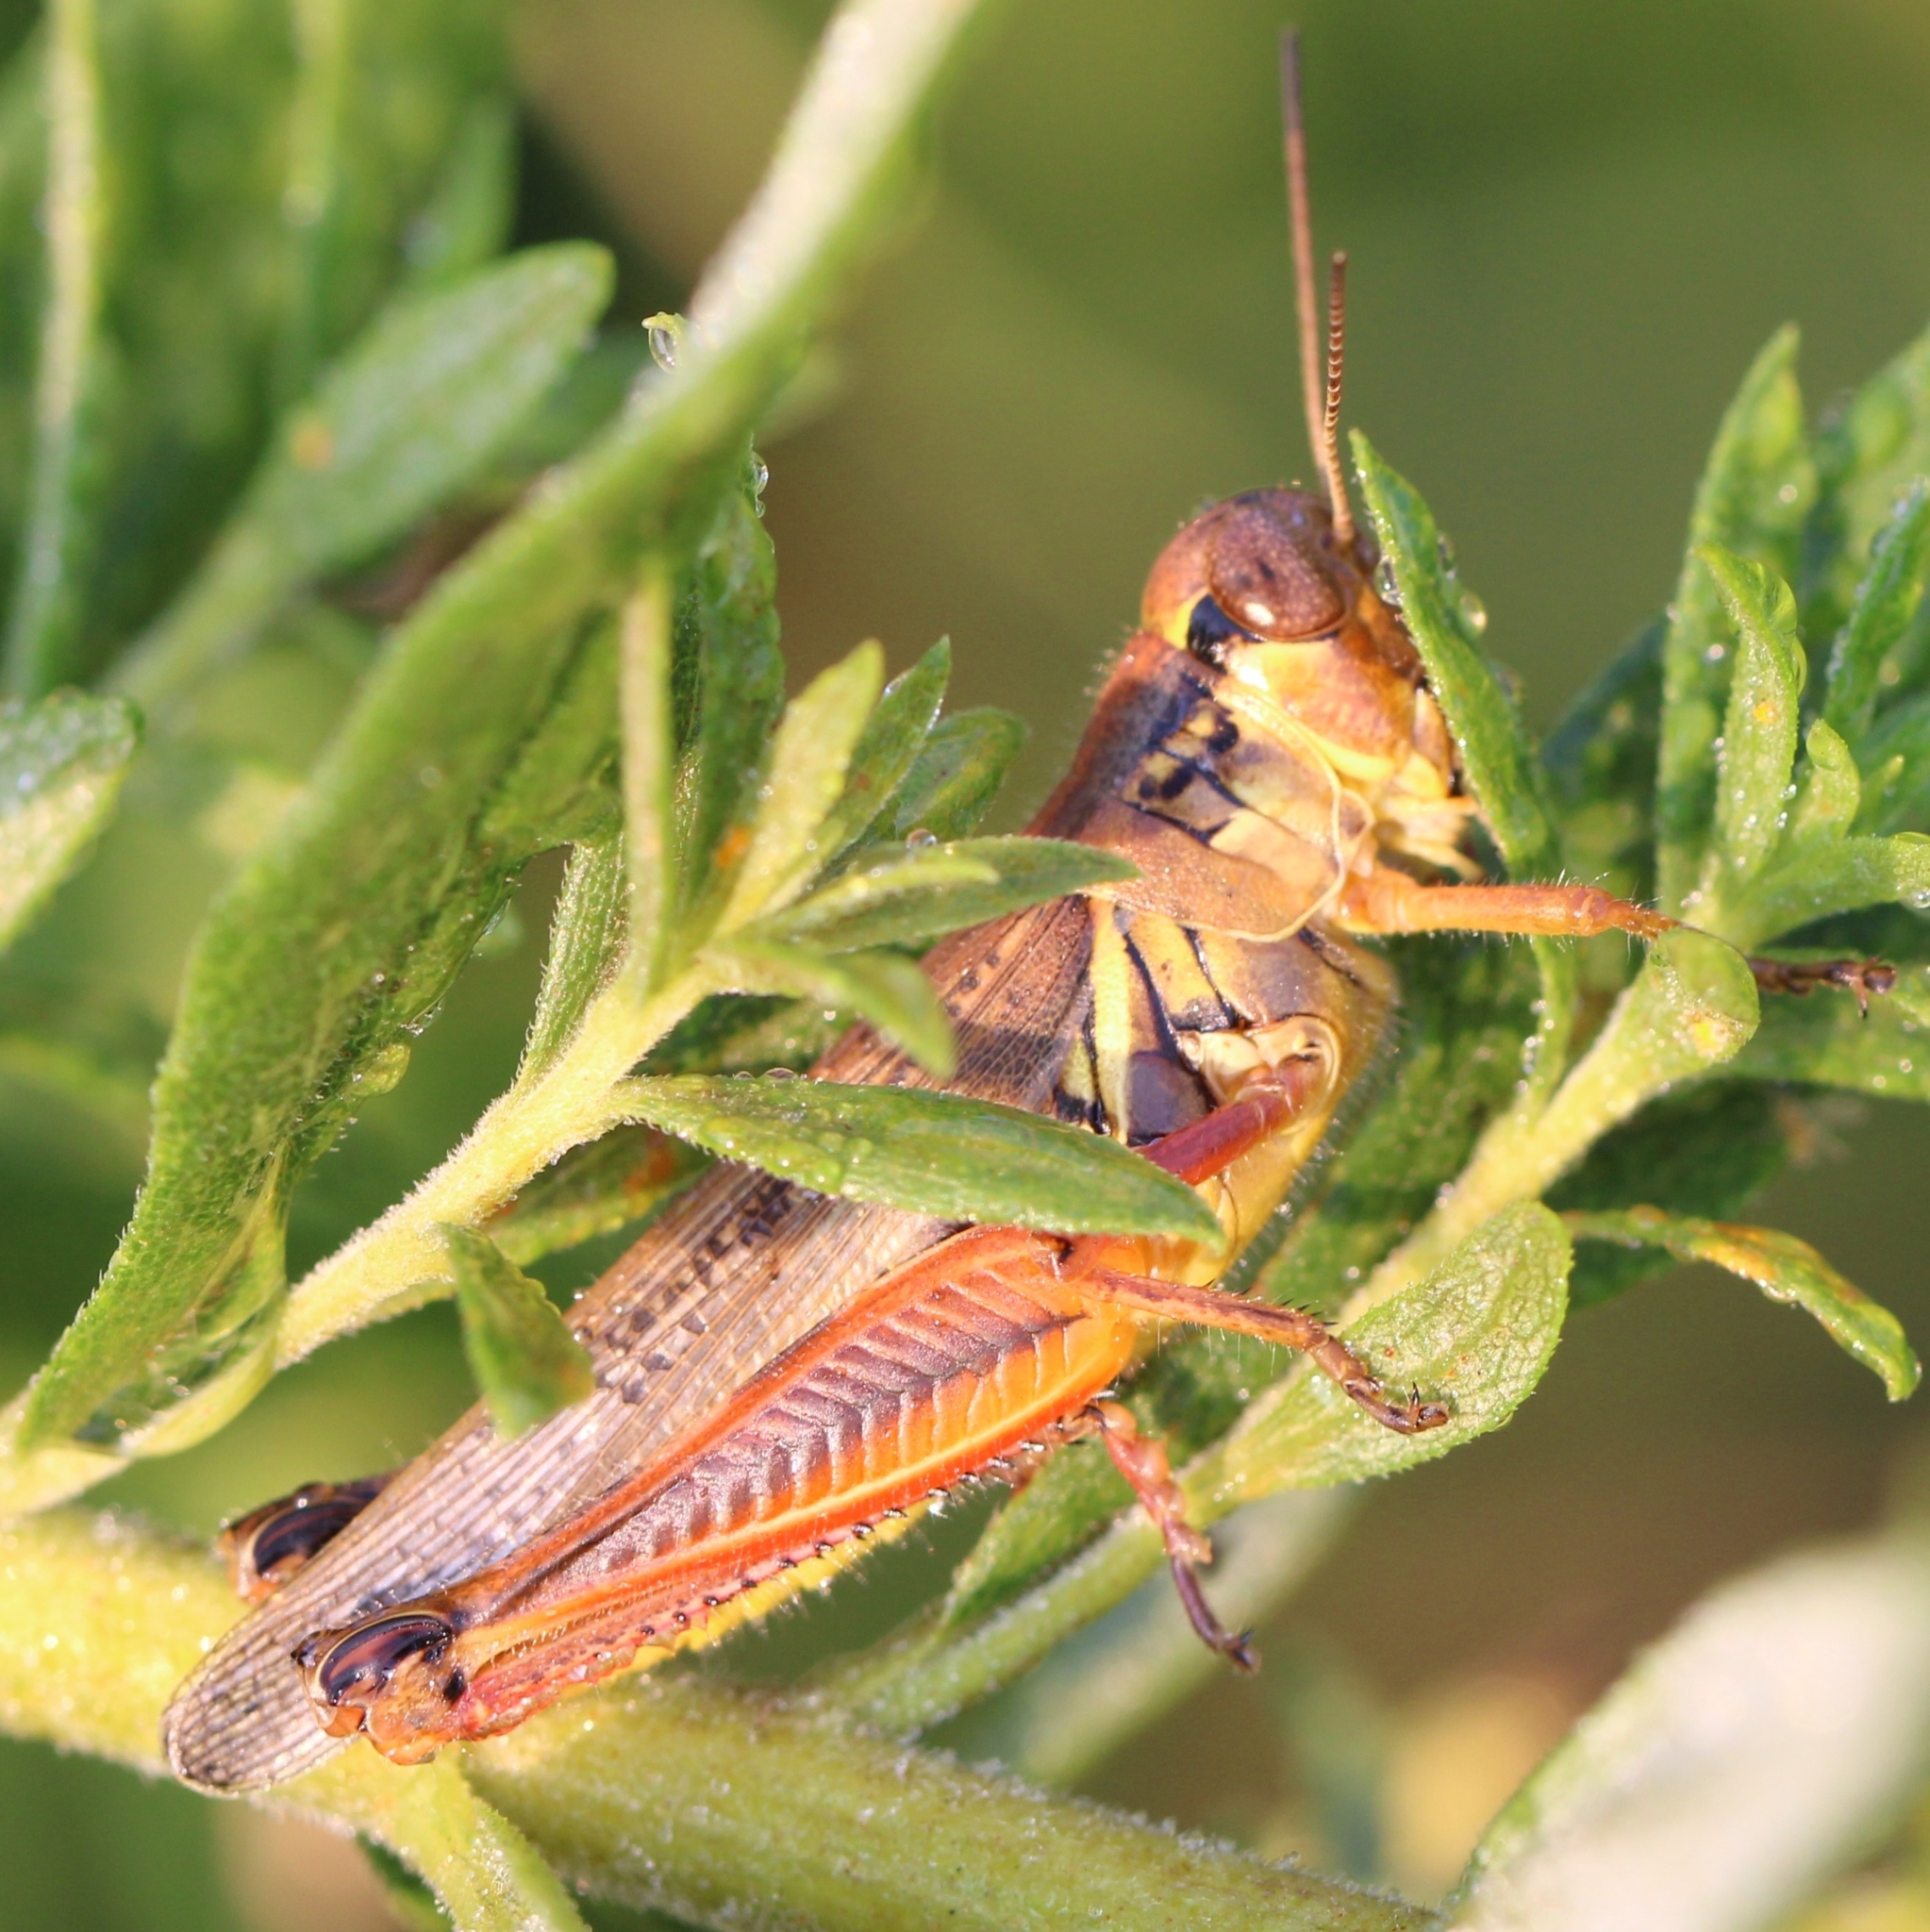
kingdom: Animalia
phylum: Arthropoda
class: Insecta
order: Orthoptera
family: Acrididae
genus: Melanoplus
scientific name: Melanoplus femurrubrum
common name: Red-legged grasshopper
